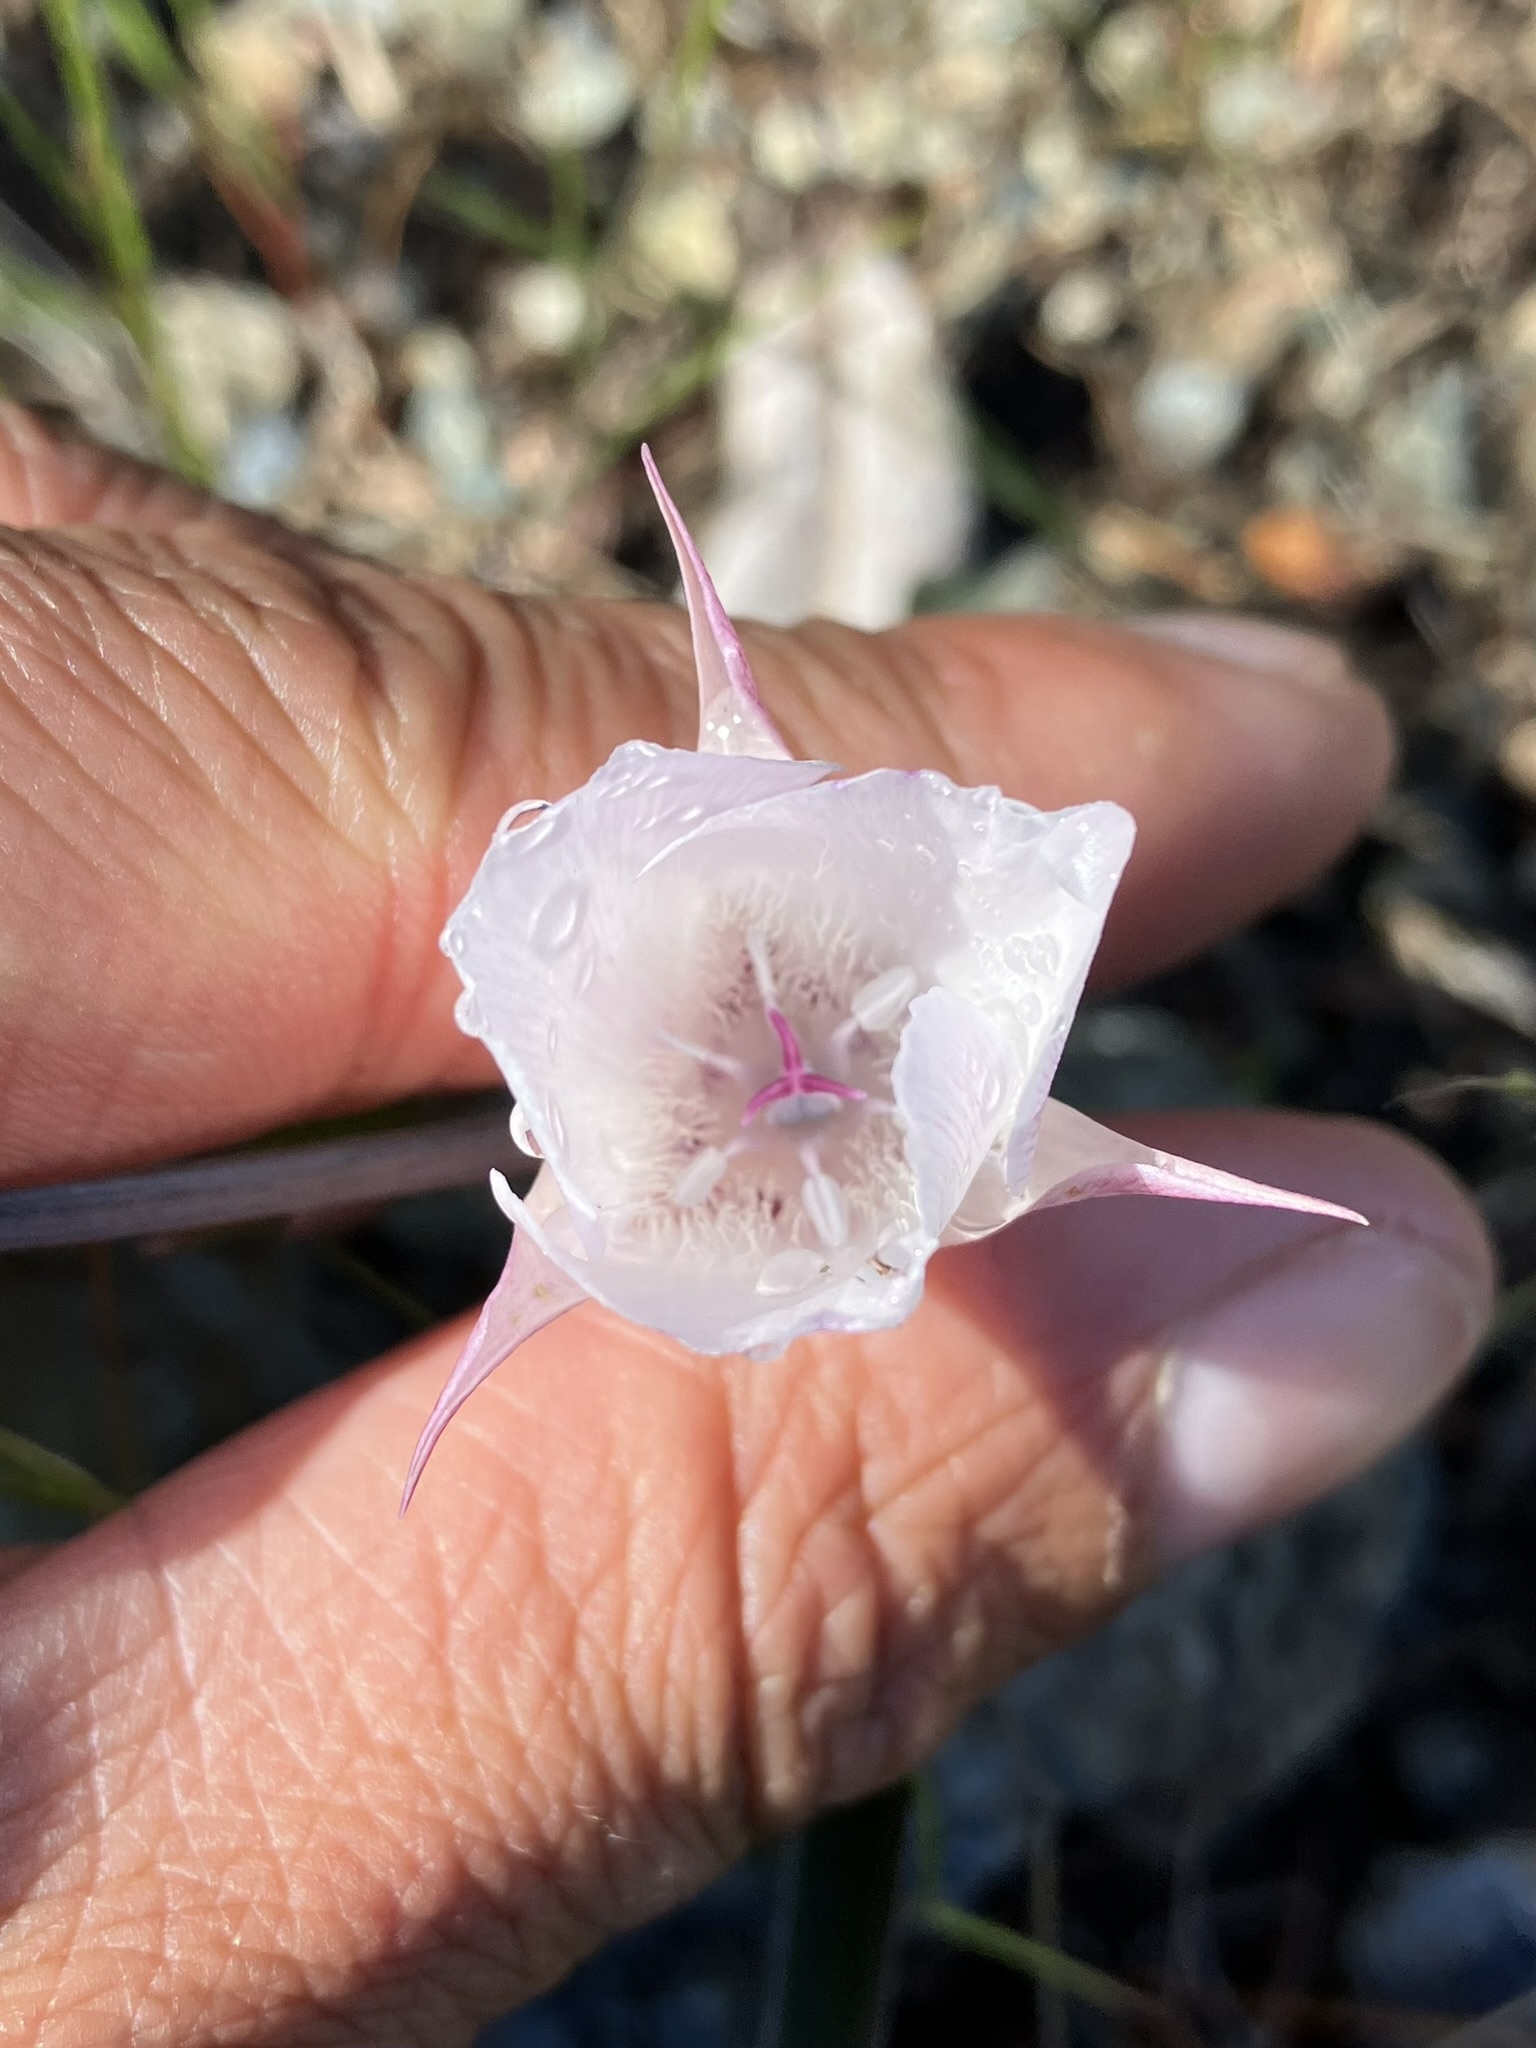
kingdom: Plantae
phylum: Tracheophyta
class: Liliopsida
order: Liliales
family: Liliaceae
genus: Calochortus
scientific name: Calochortus umbellatus
